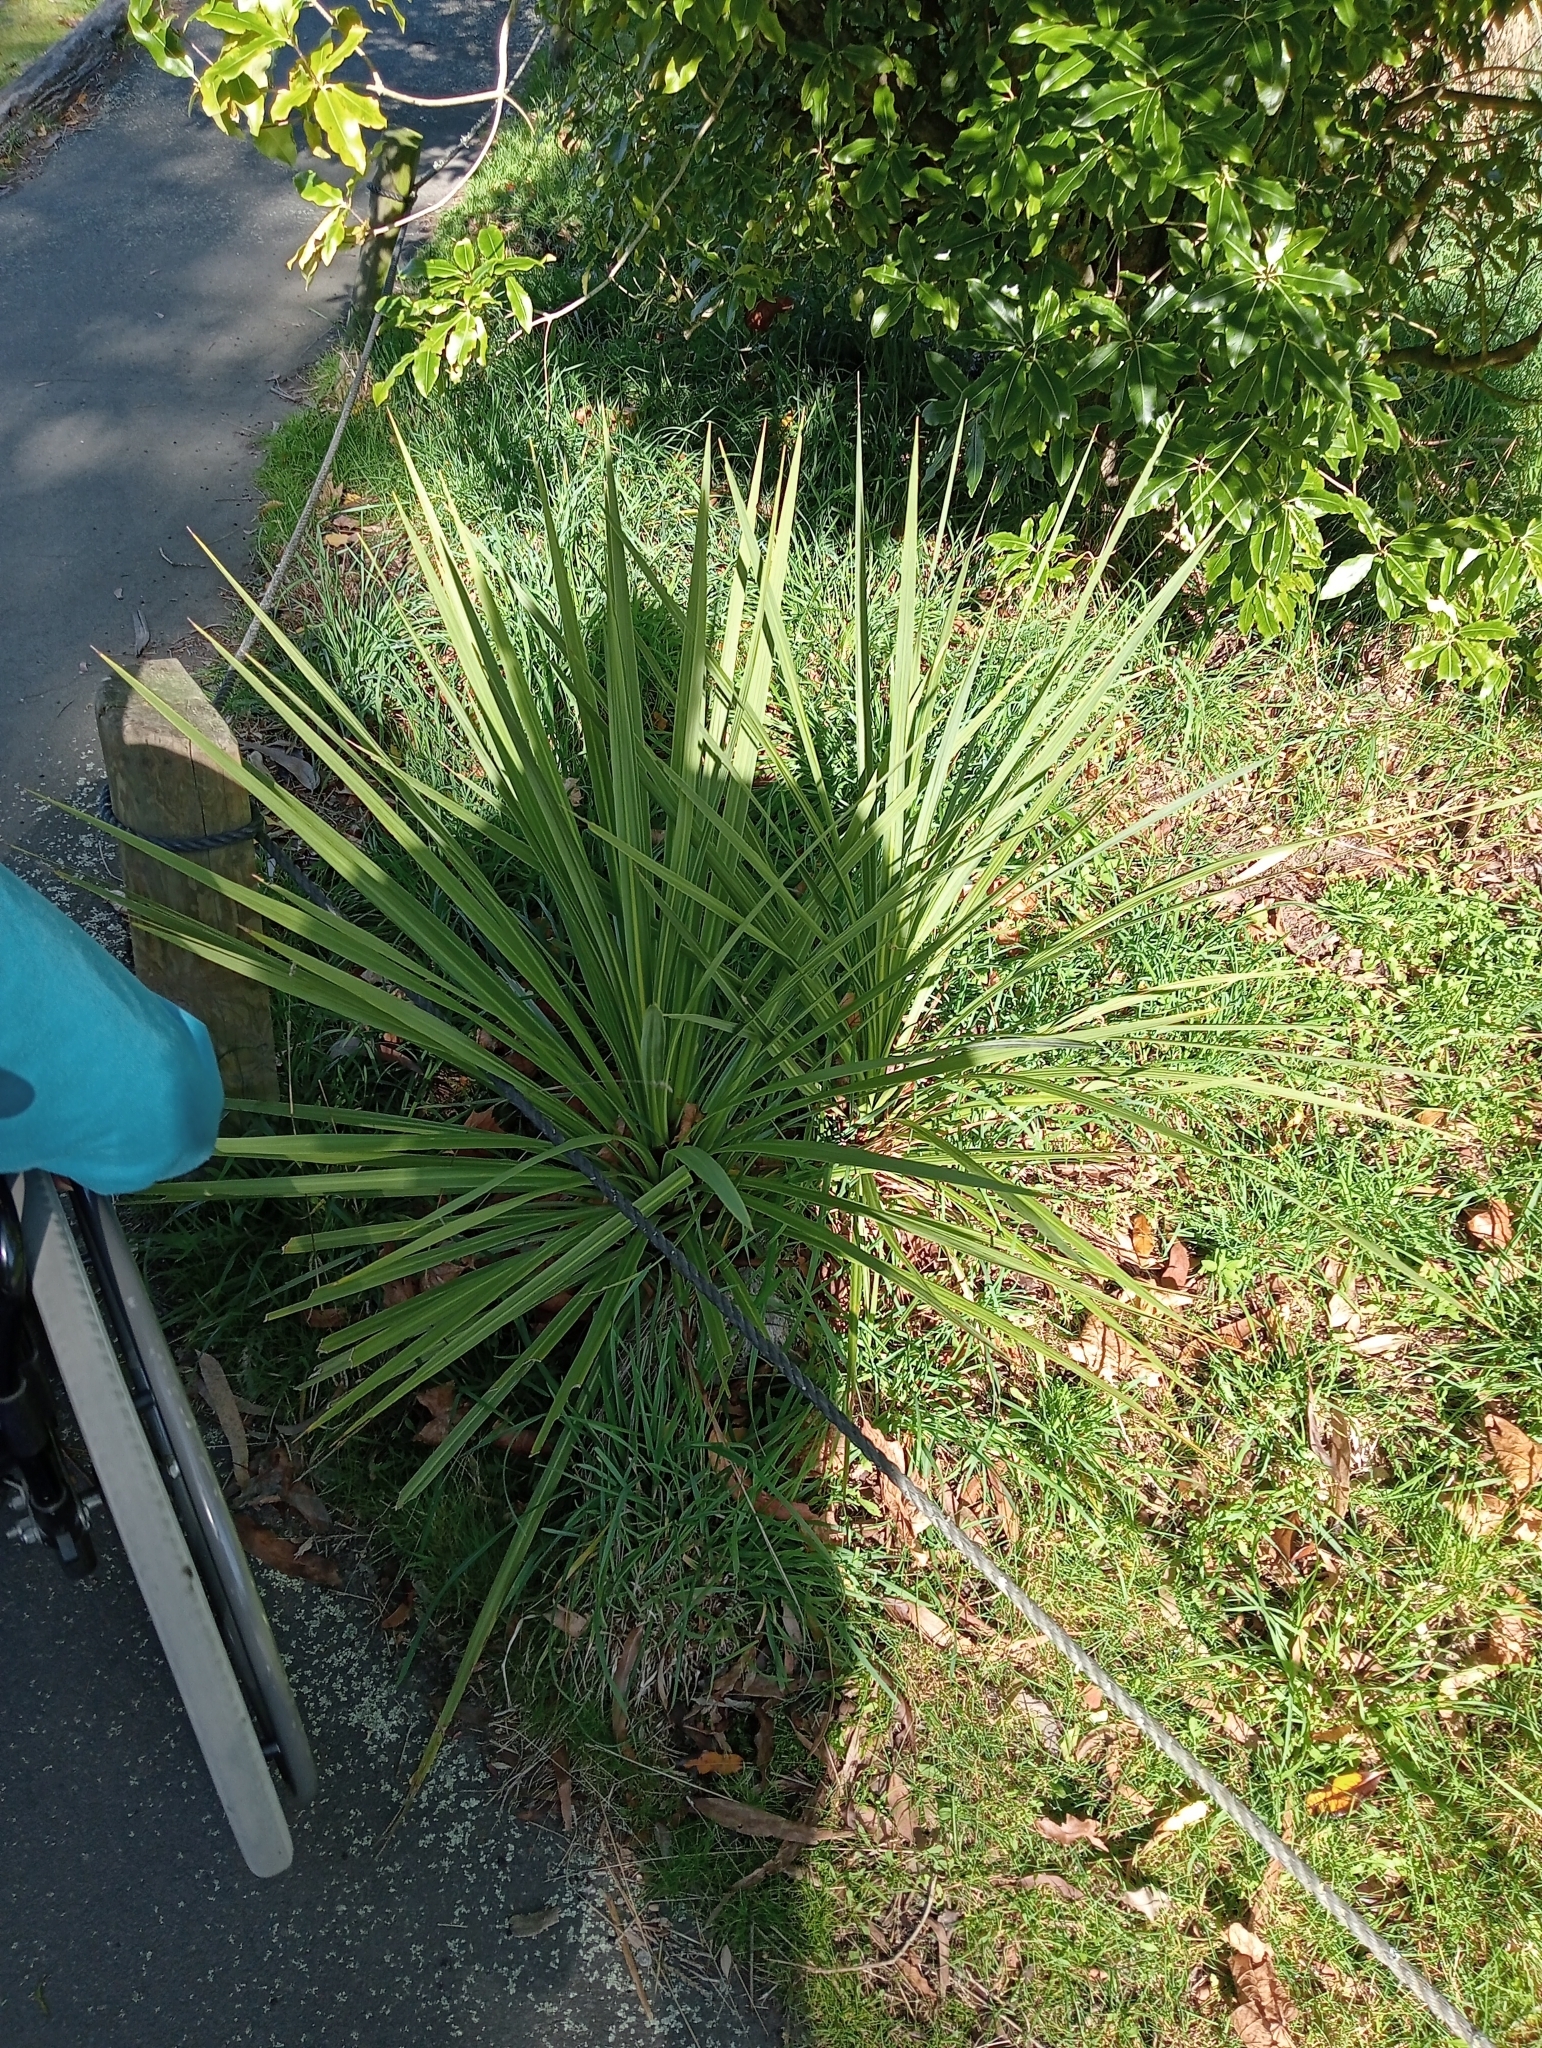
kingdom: Plantae
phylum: Tracheophyta
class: Liliopsida
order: Asparagales
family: Asparagaceae
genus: Cordyline
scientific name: Cordyline australis
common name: Cabbage-palm
